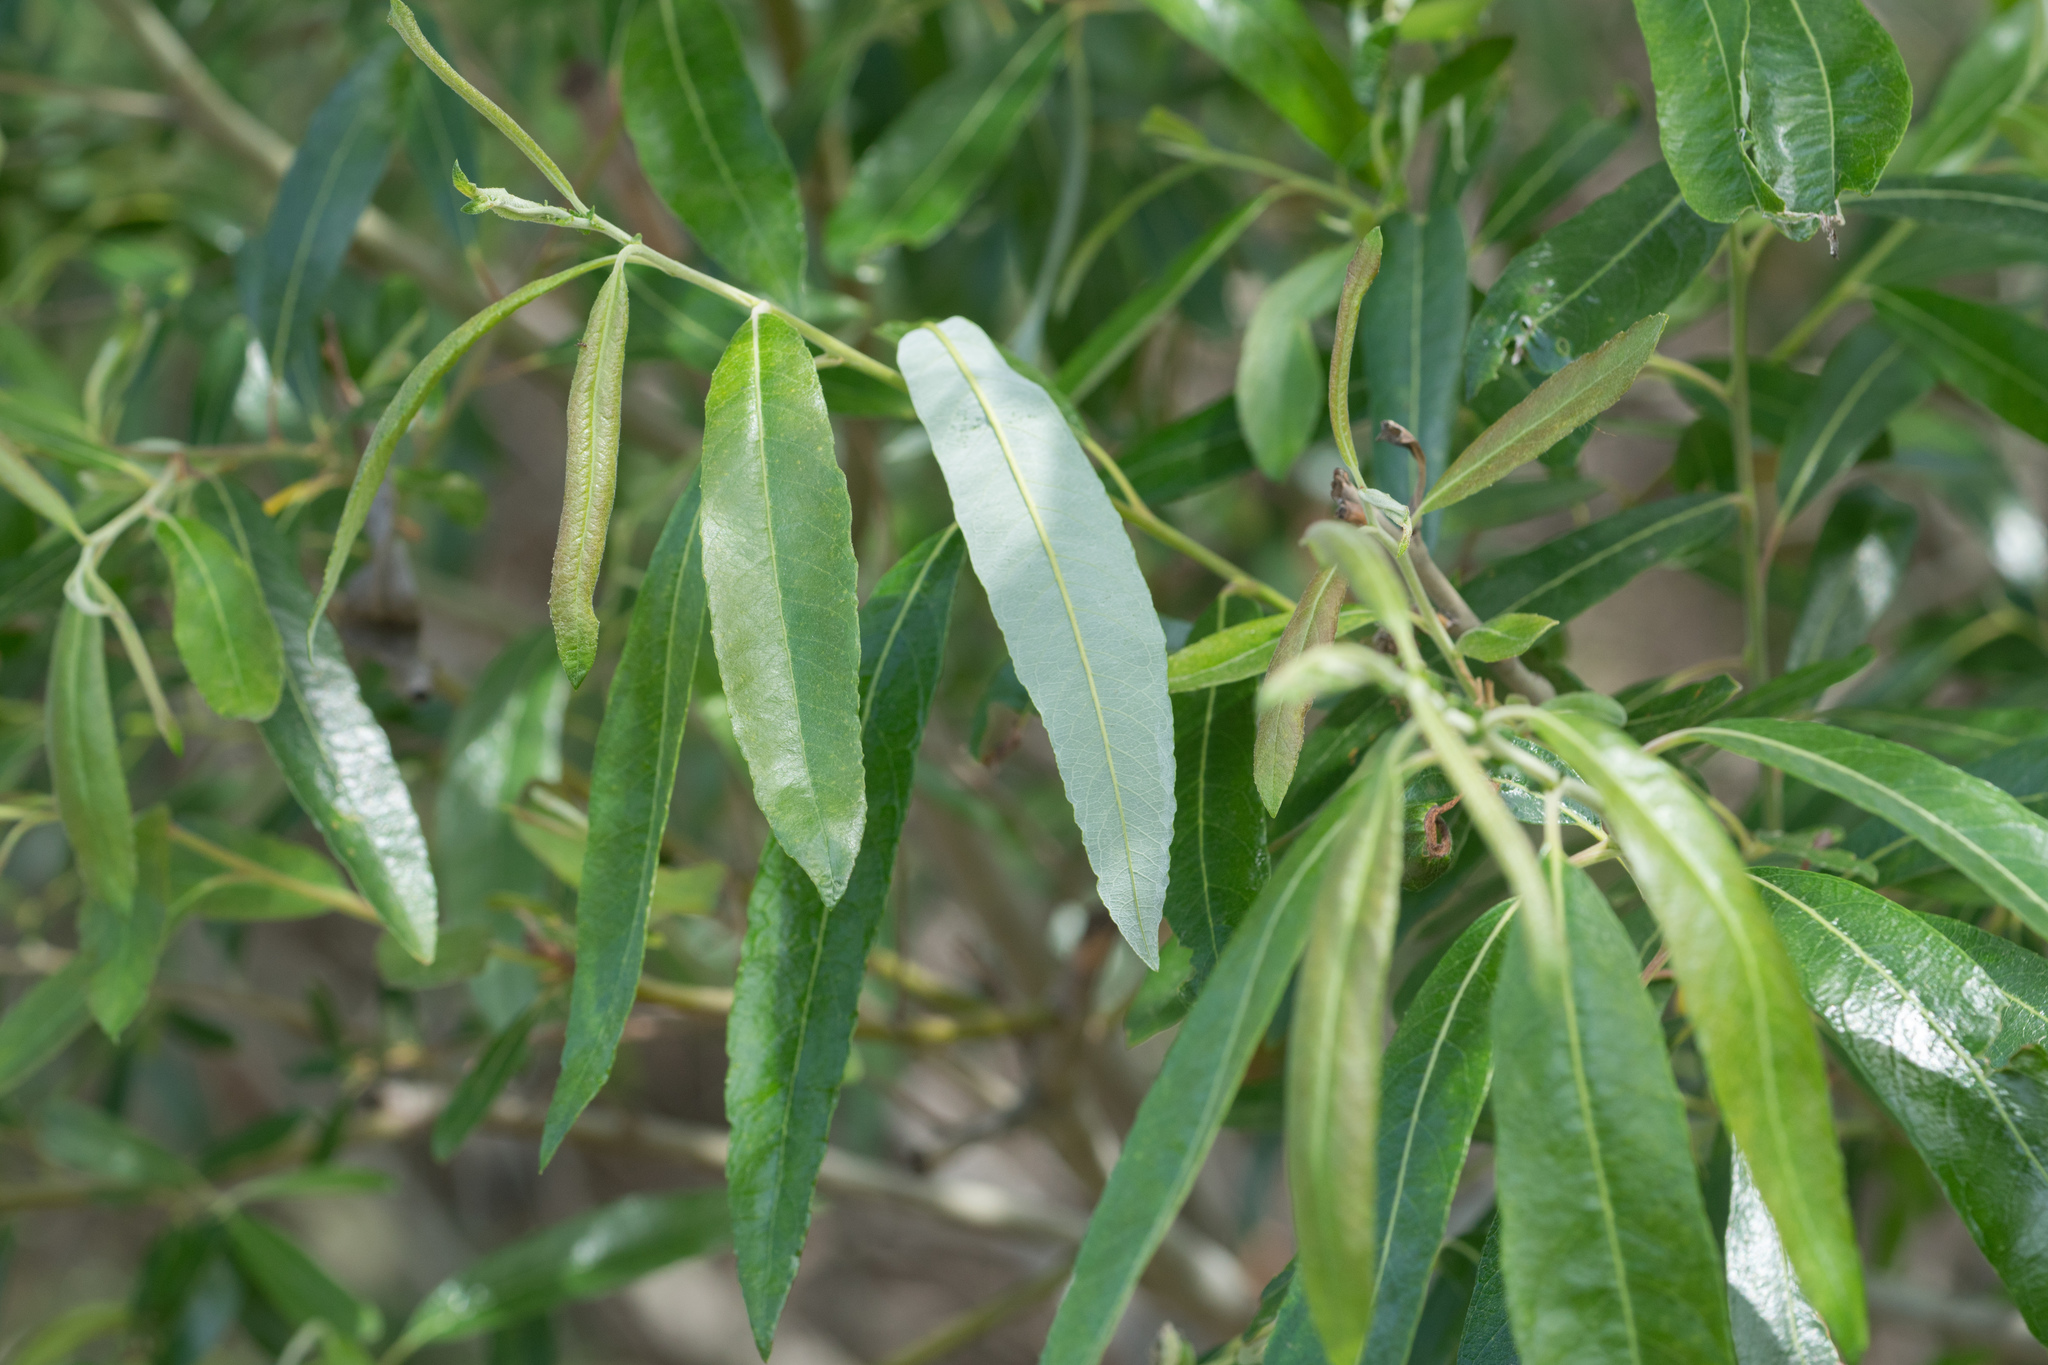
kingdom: Plantae
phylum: Tracheophyta
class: Magnoliopsida
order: Malpighiales
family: Salicaceae
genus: Salix
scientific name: Salix lasiolepis
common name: Arroyo willow
